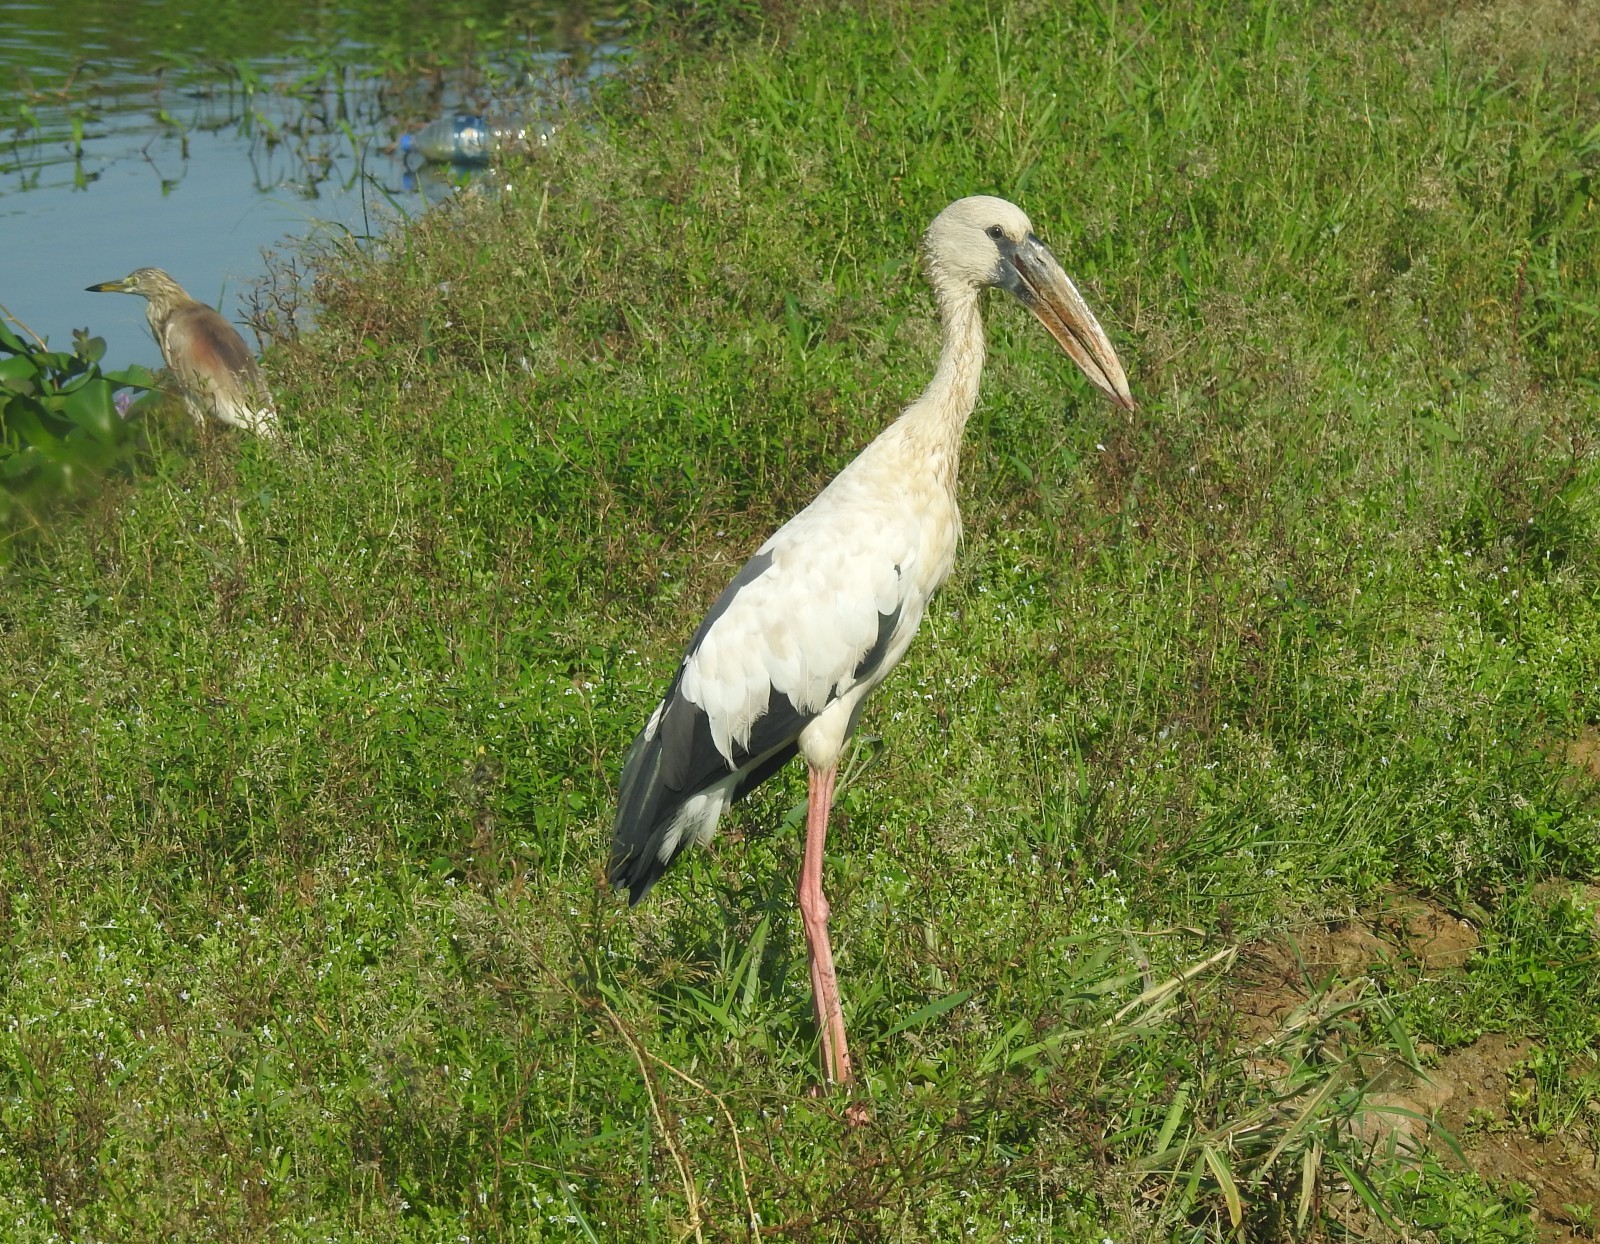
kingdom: Animalia
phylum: Chordata
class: Aves
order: Ciconiiformes
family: Ciconiidae
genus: Anastomus
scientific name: Anastomus oscitans
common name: Asian openbill
